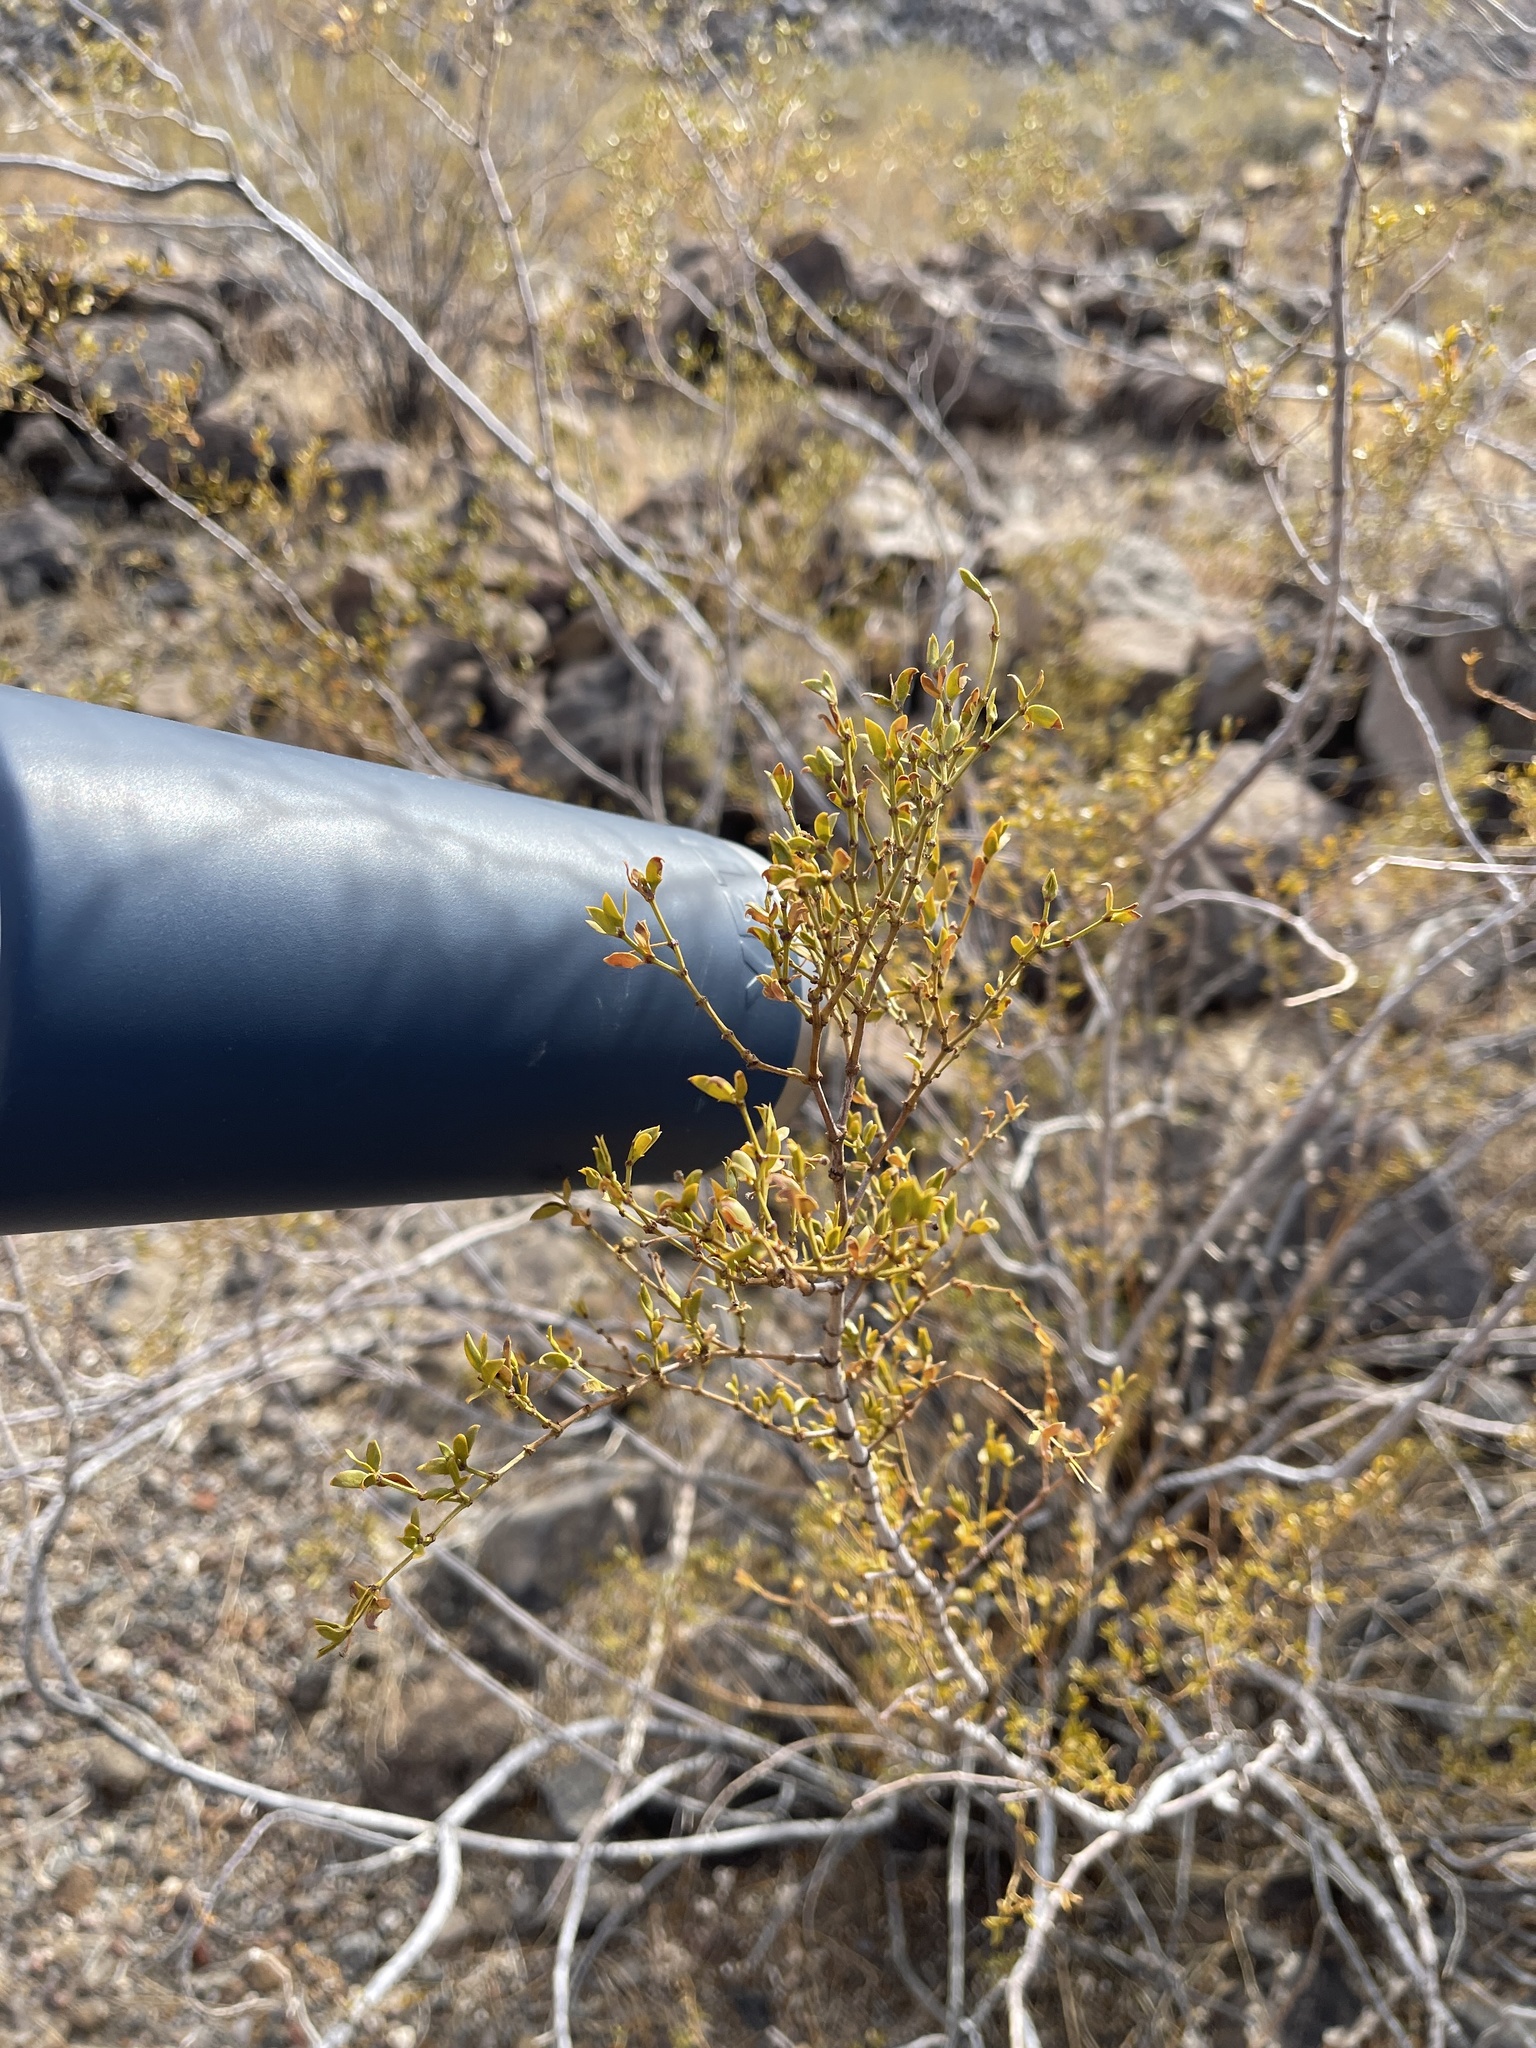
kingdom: Plantae
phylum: Tracheophyta
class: Magnoliopsida
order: Zygophyllales
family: Zygophyllaceae
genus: Larrea
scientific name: Larrea tridentata
